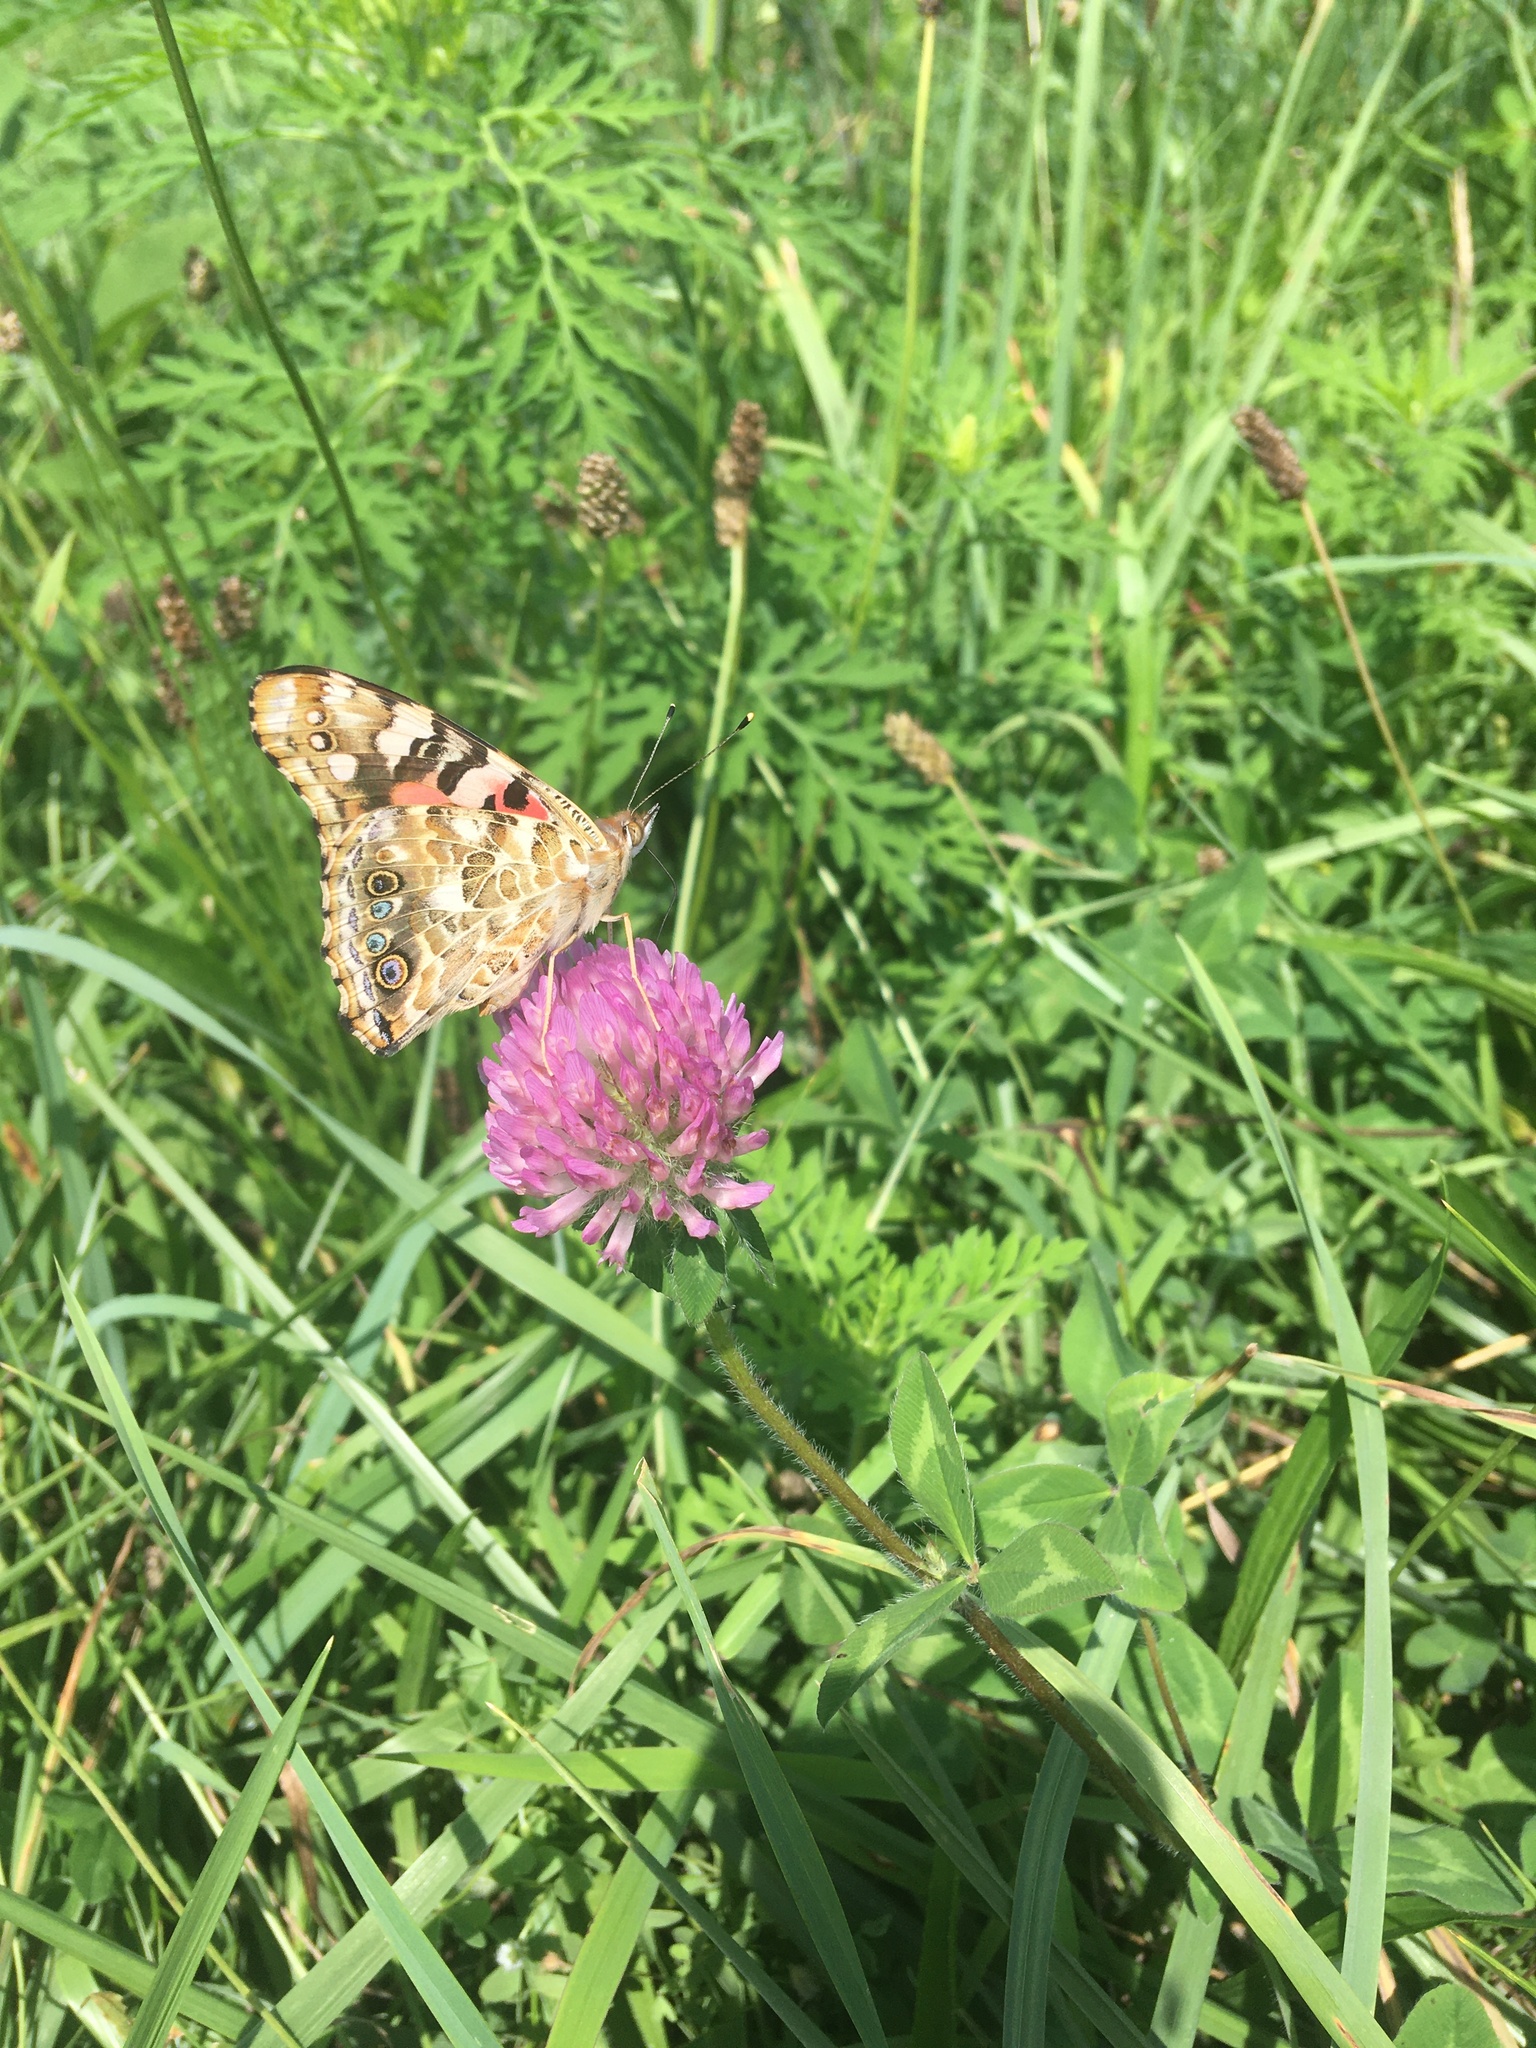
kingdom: Animalia
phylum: Arthropoda
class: Insecta
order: Lepidoptera
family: Nymphalidae
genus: Vanessa
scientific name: Vanessa cardui
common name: Painted lady
